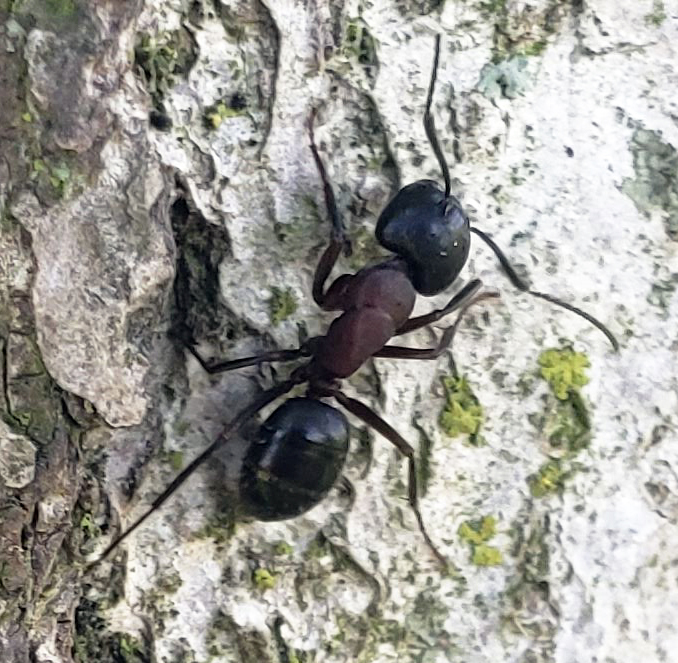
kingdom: Animalia
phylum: Arthropoda
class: Insecta
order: Hymenoptera
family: Formicidae
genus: Camponotus
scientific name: Camponotus novaeboracensis
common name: New york carpenter ant
